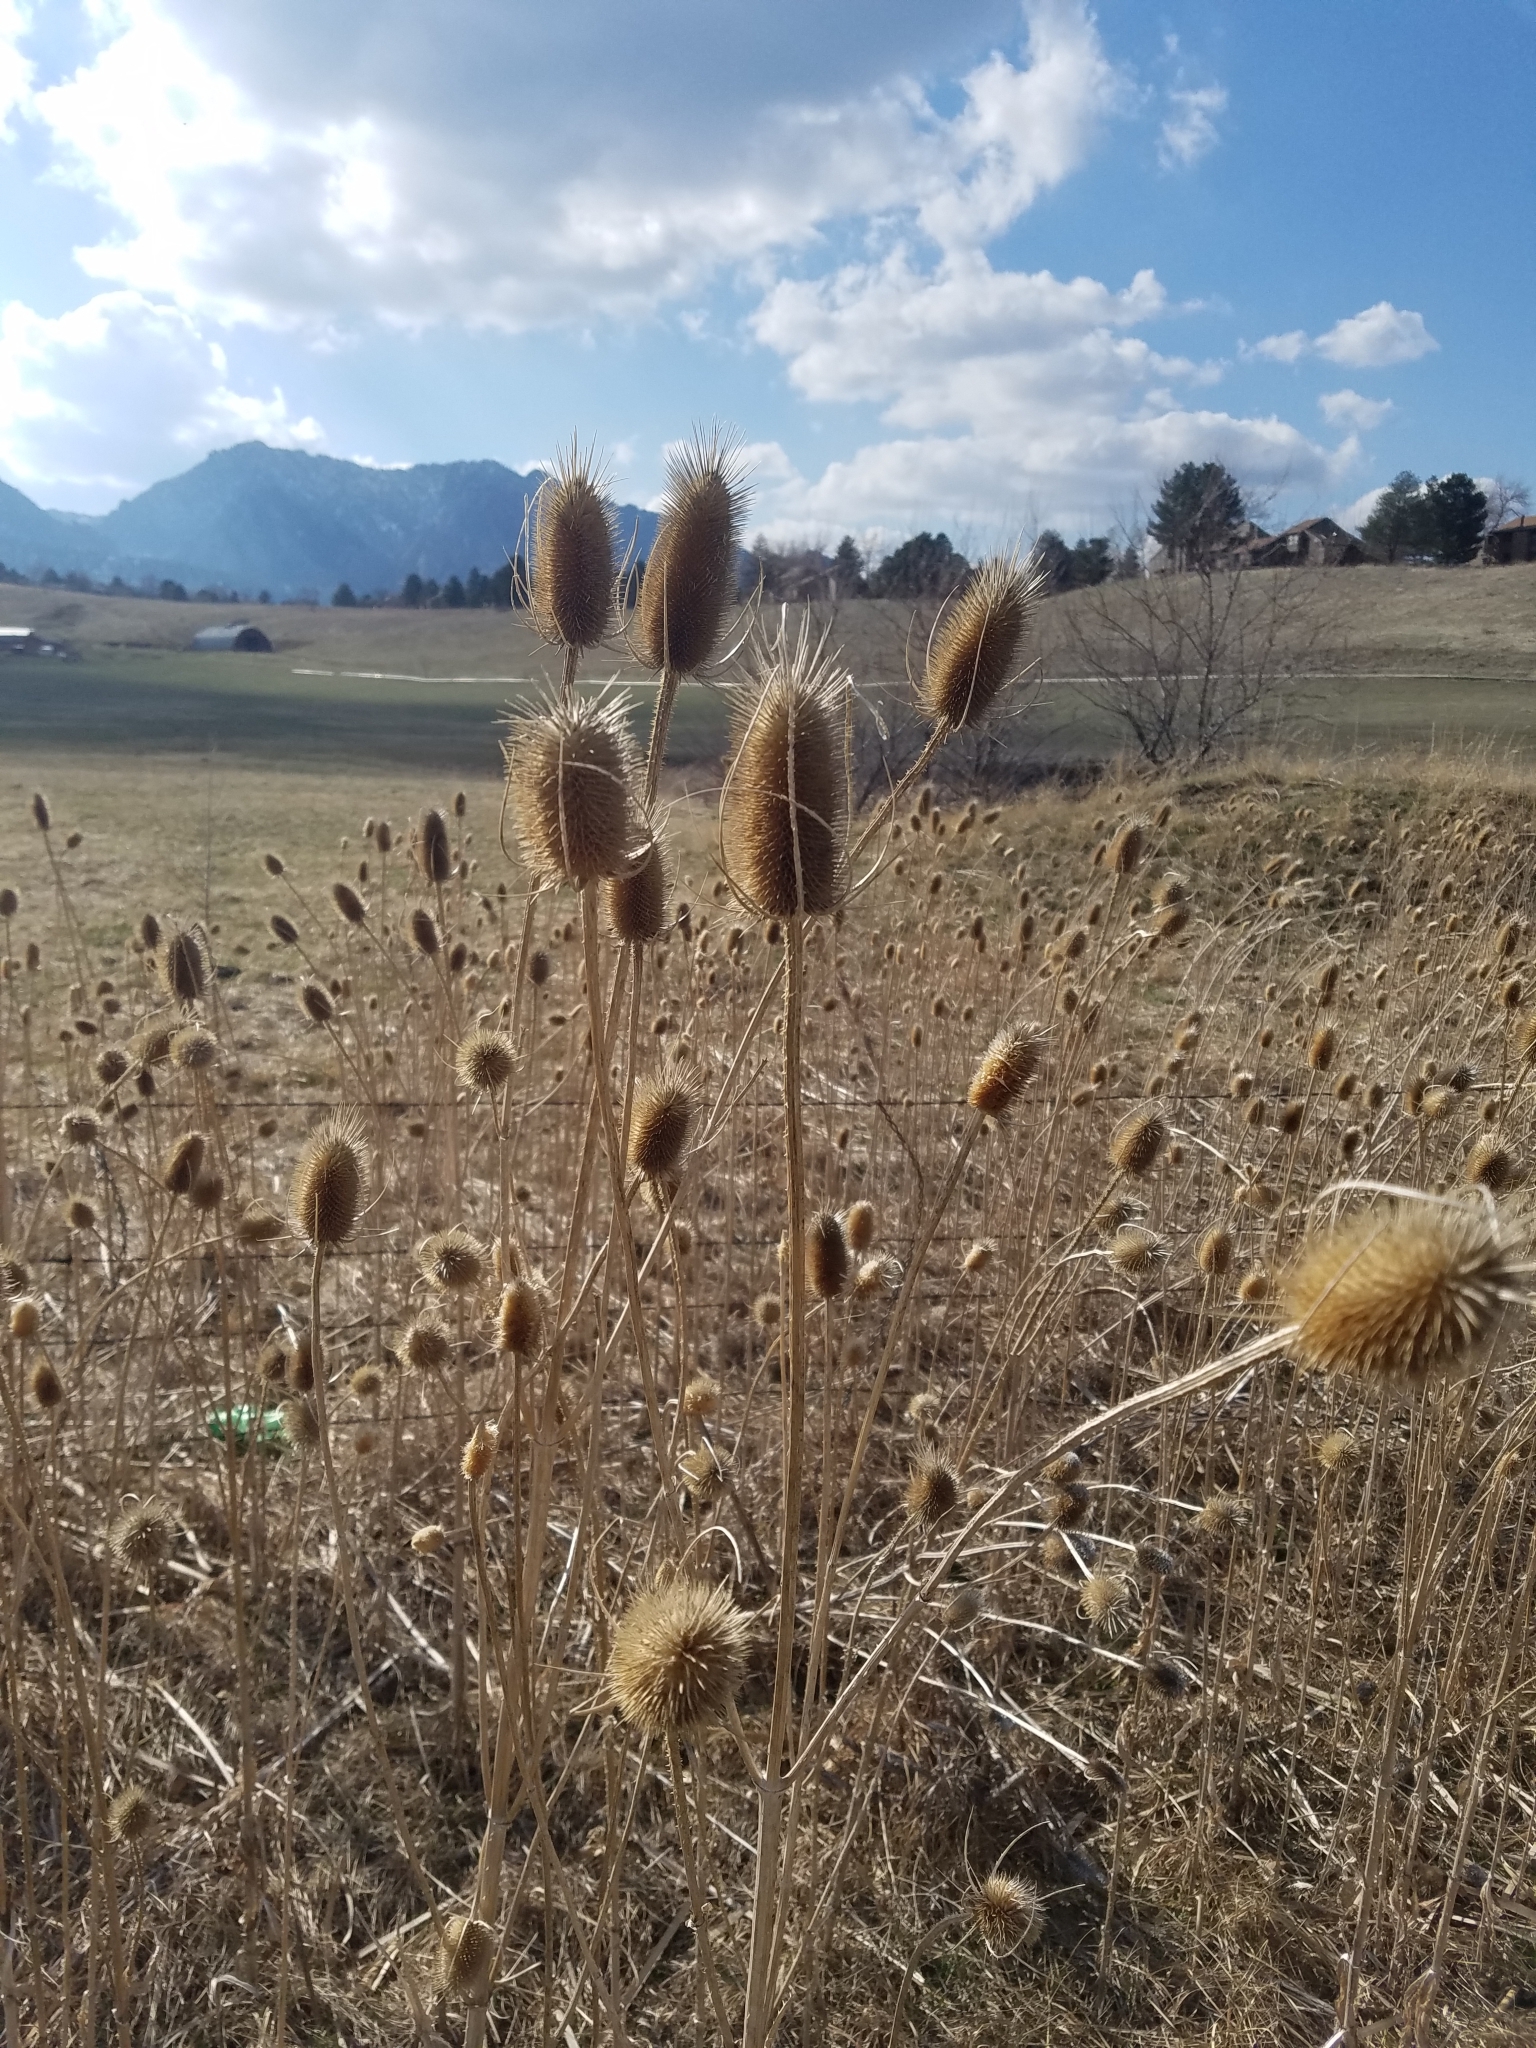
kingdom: Plantae
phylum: Tracheophyta
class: Magnoliopsida
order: Dipsacales
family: Caprifoliaceae
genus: Dipsacus
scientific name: Dipsacus fullonum
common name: Teasel
